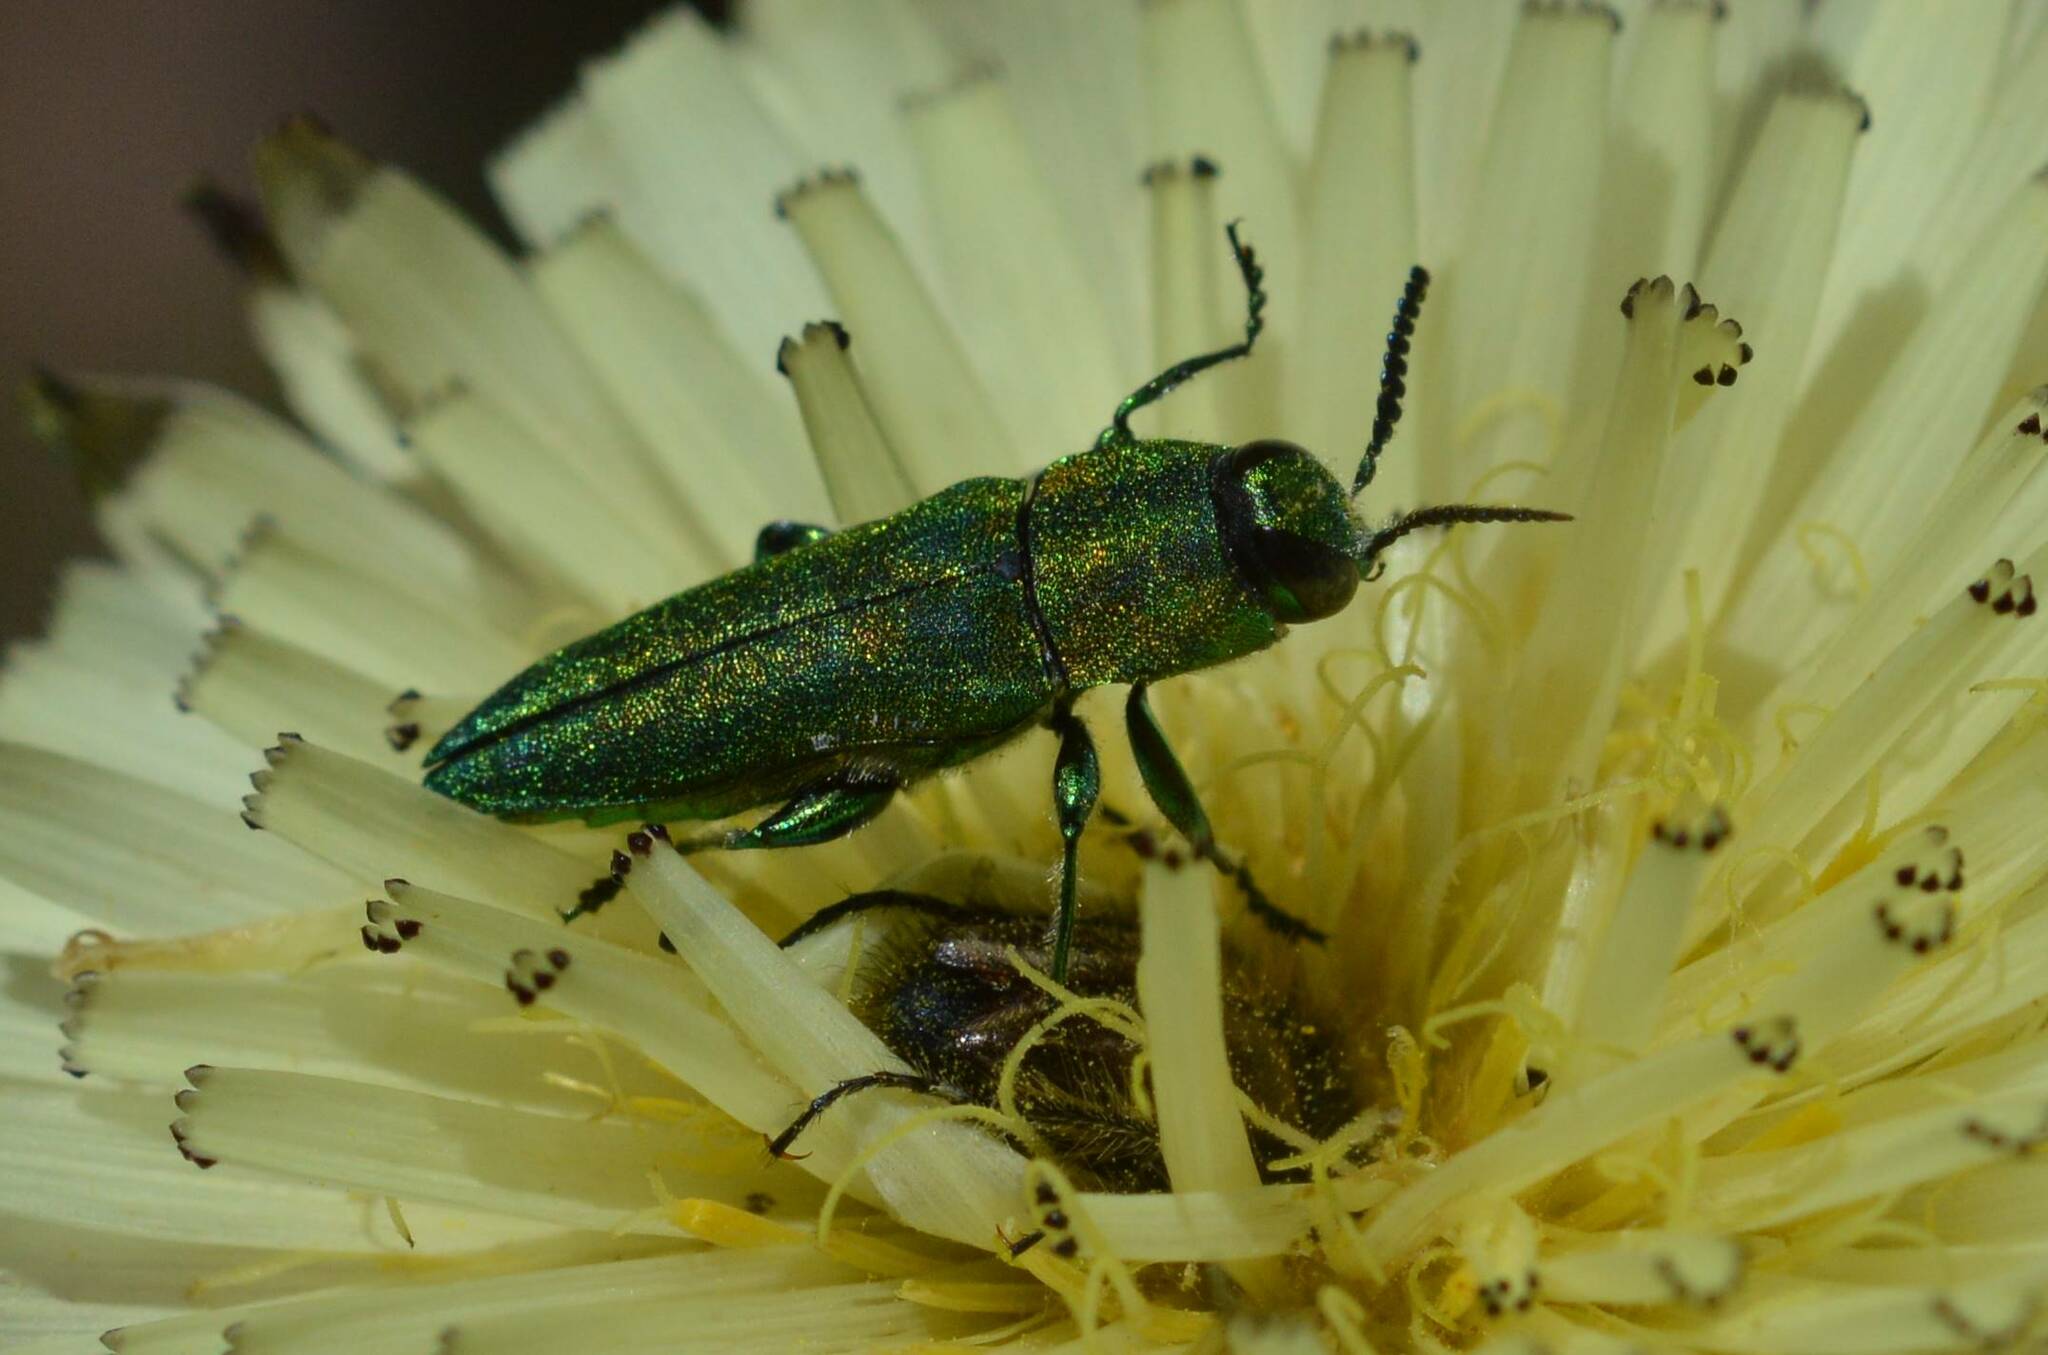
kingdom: Animalia
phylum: Arthropoda
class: Insecta
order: Coleoptera
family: Buprestidae
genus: Anthaxia
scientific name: Anthaxia hungarica
